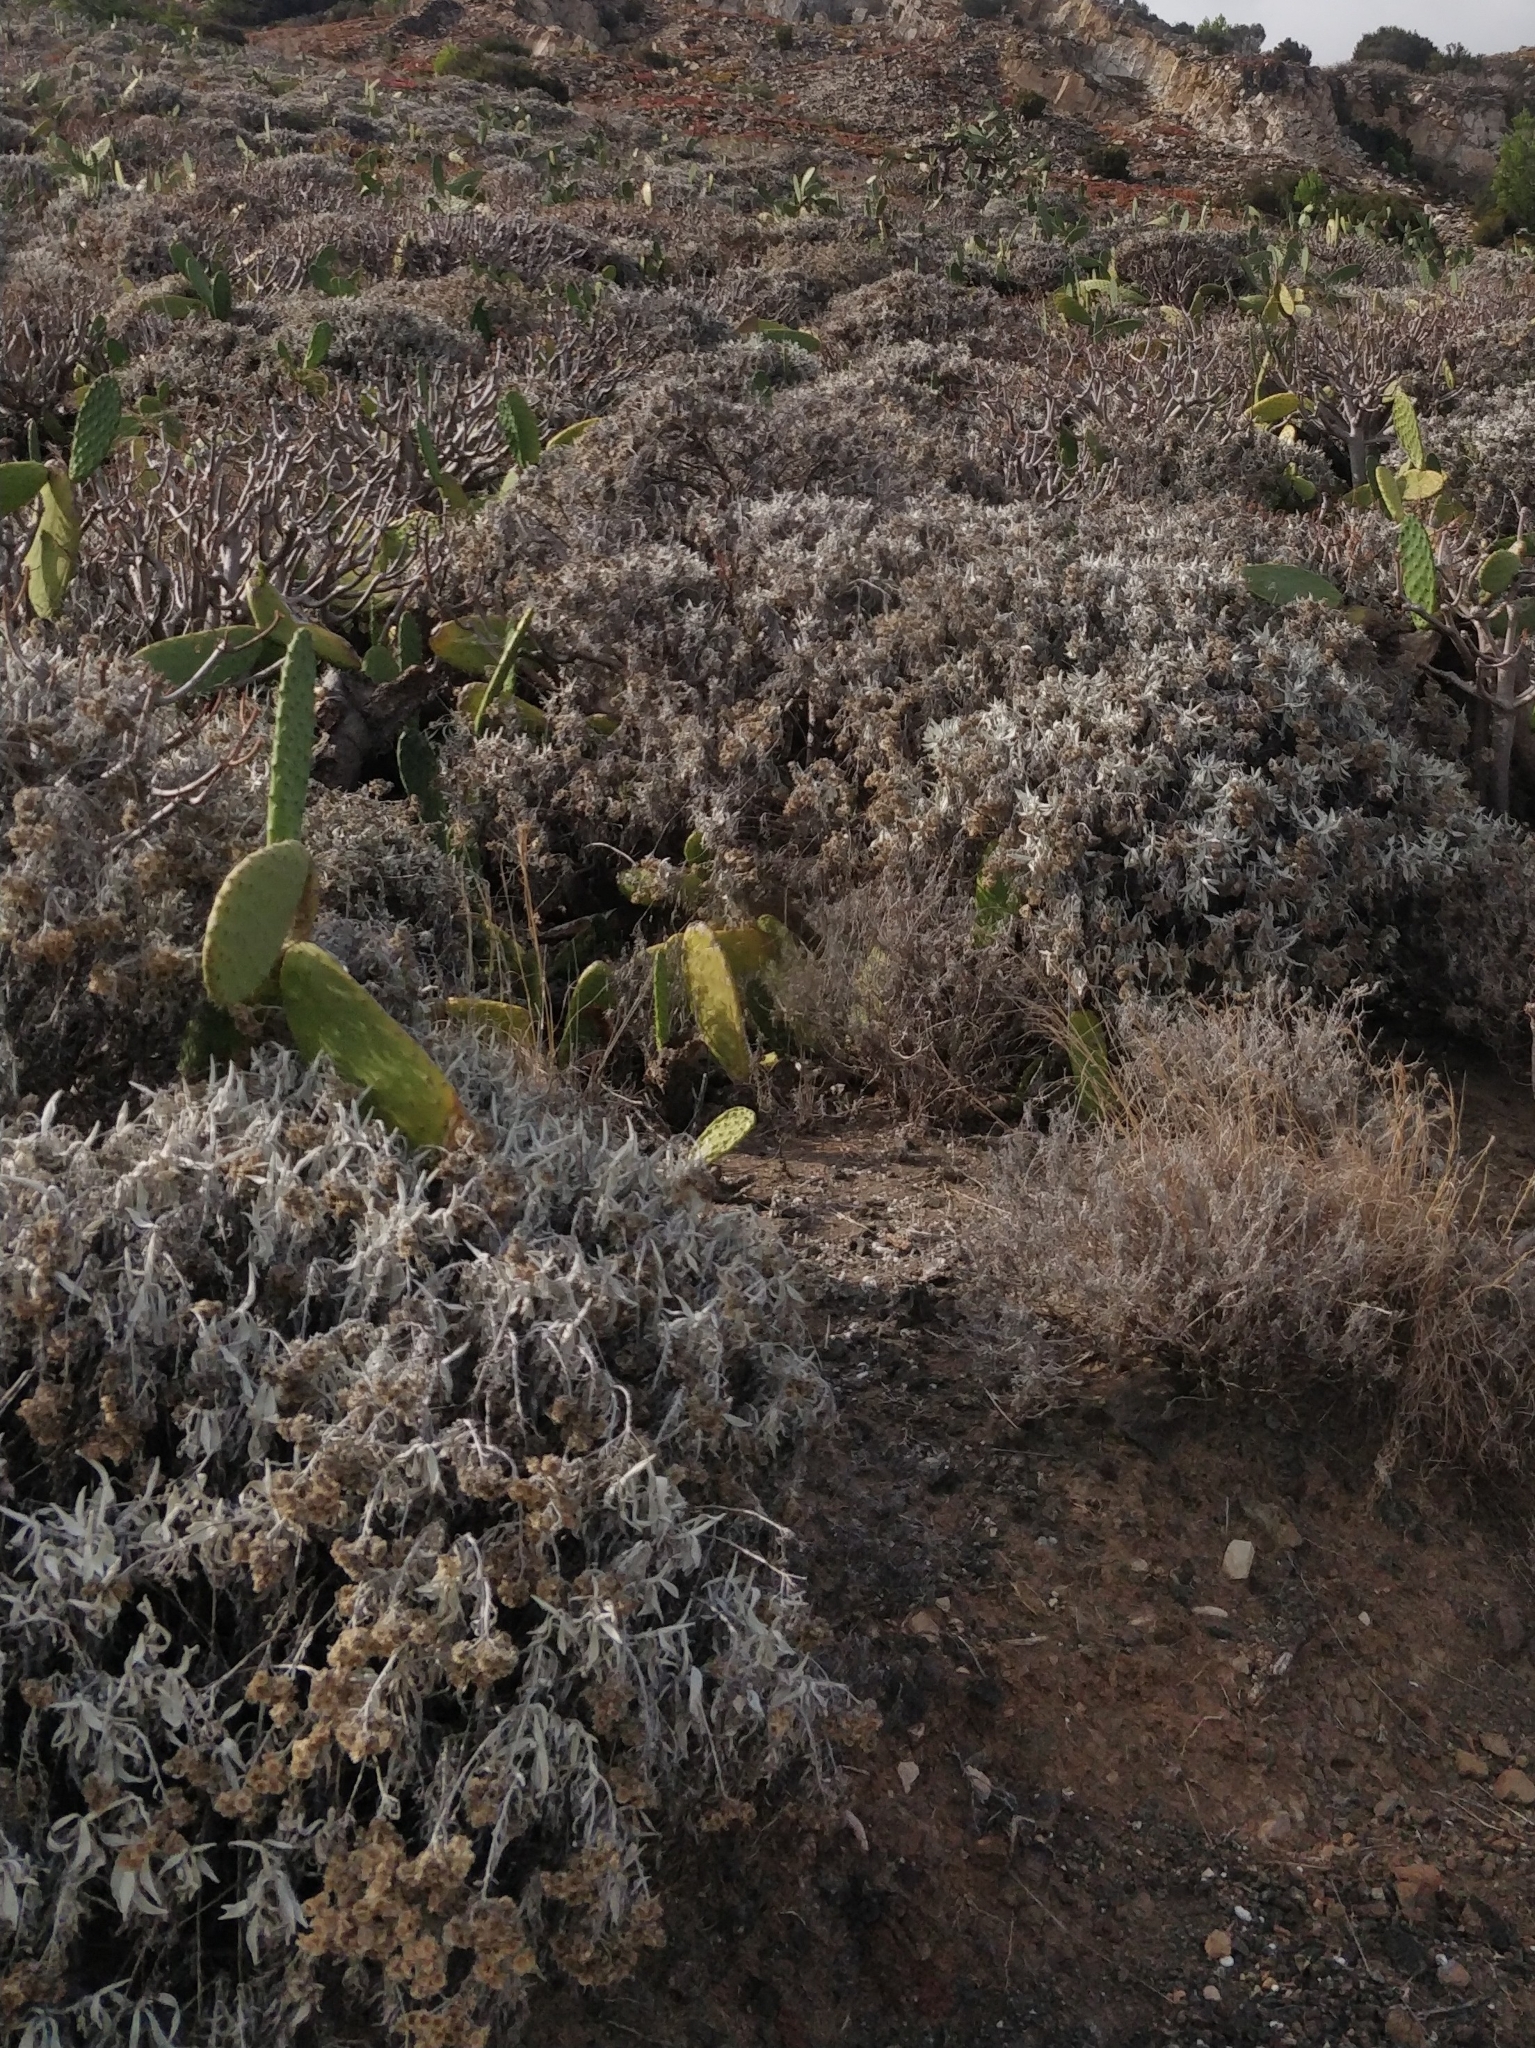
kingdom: Plantae
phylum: Tracheophyta
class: Magnoliopsida
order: Asterales
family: Asteraceae
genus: Helichrysum
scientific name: Helichrysum melaleucum
